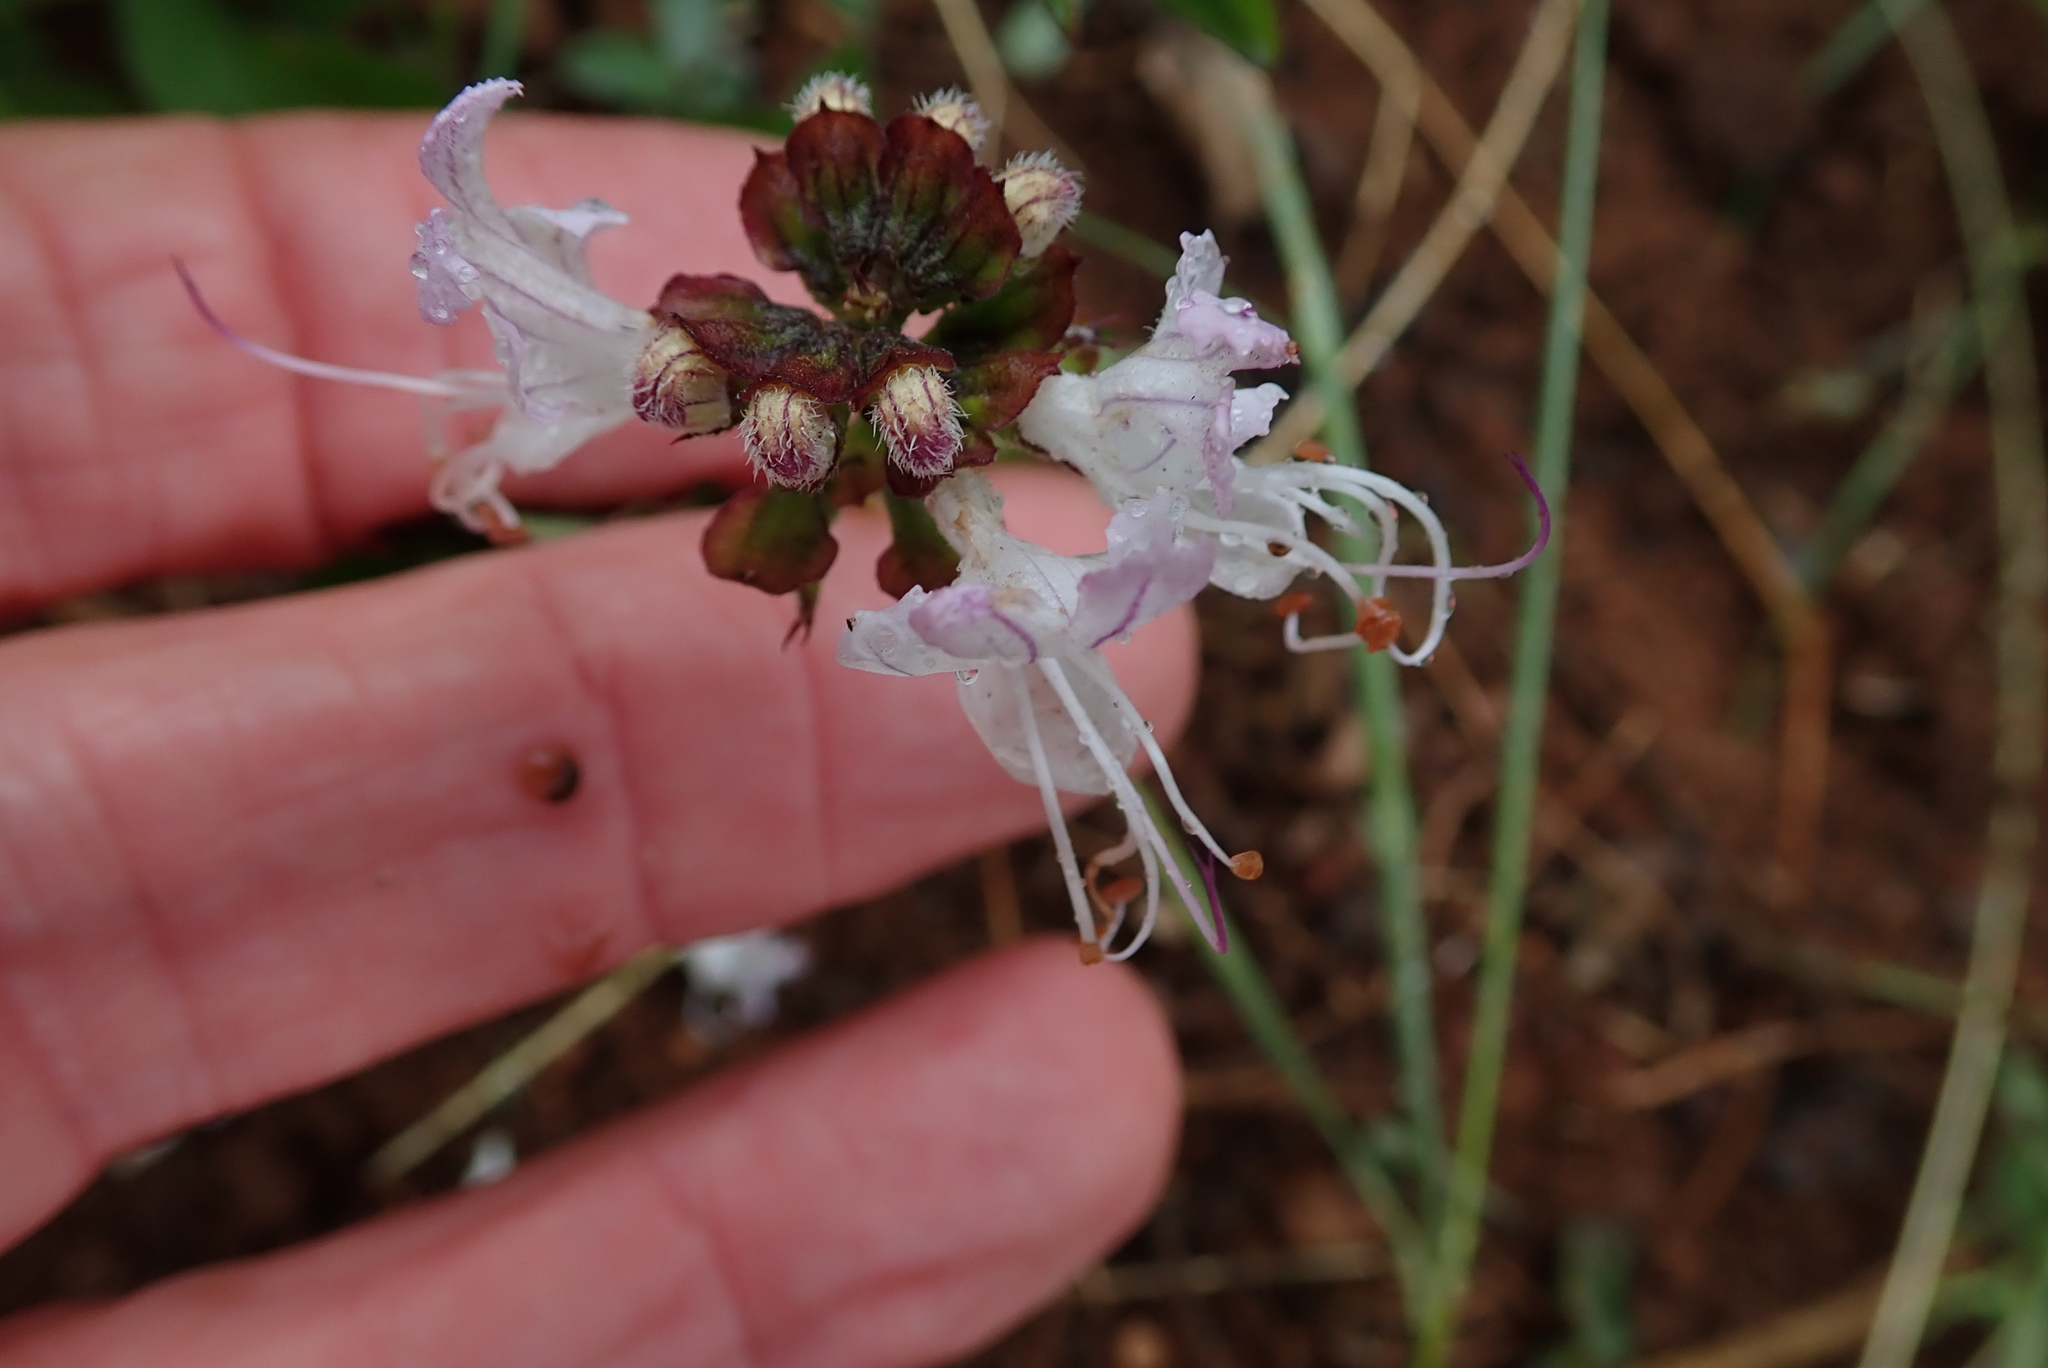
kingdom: Plantae
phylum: Tracheophyta
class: Magnoliopsida
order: Lamiales
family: Lamiaceae
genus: Ocimum
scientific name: Ocimum obovatum
